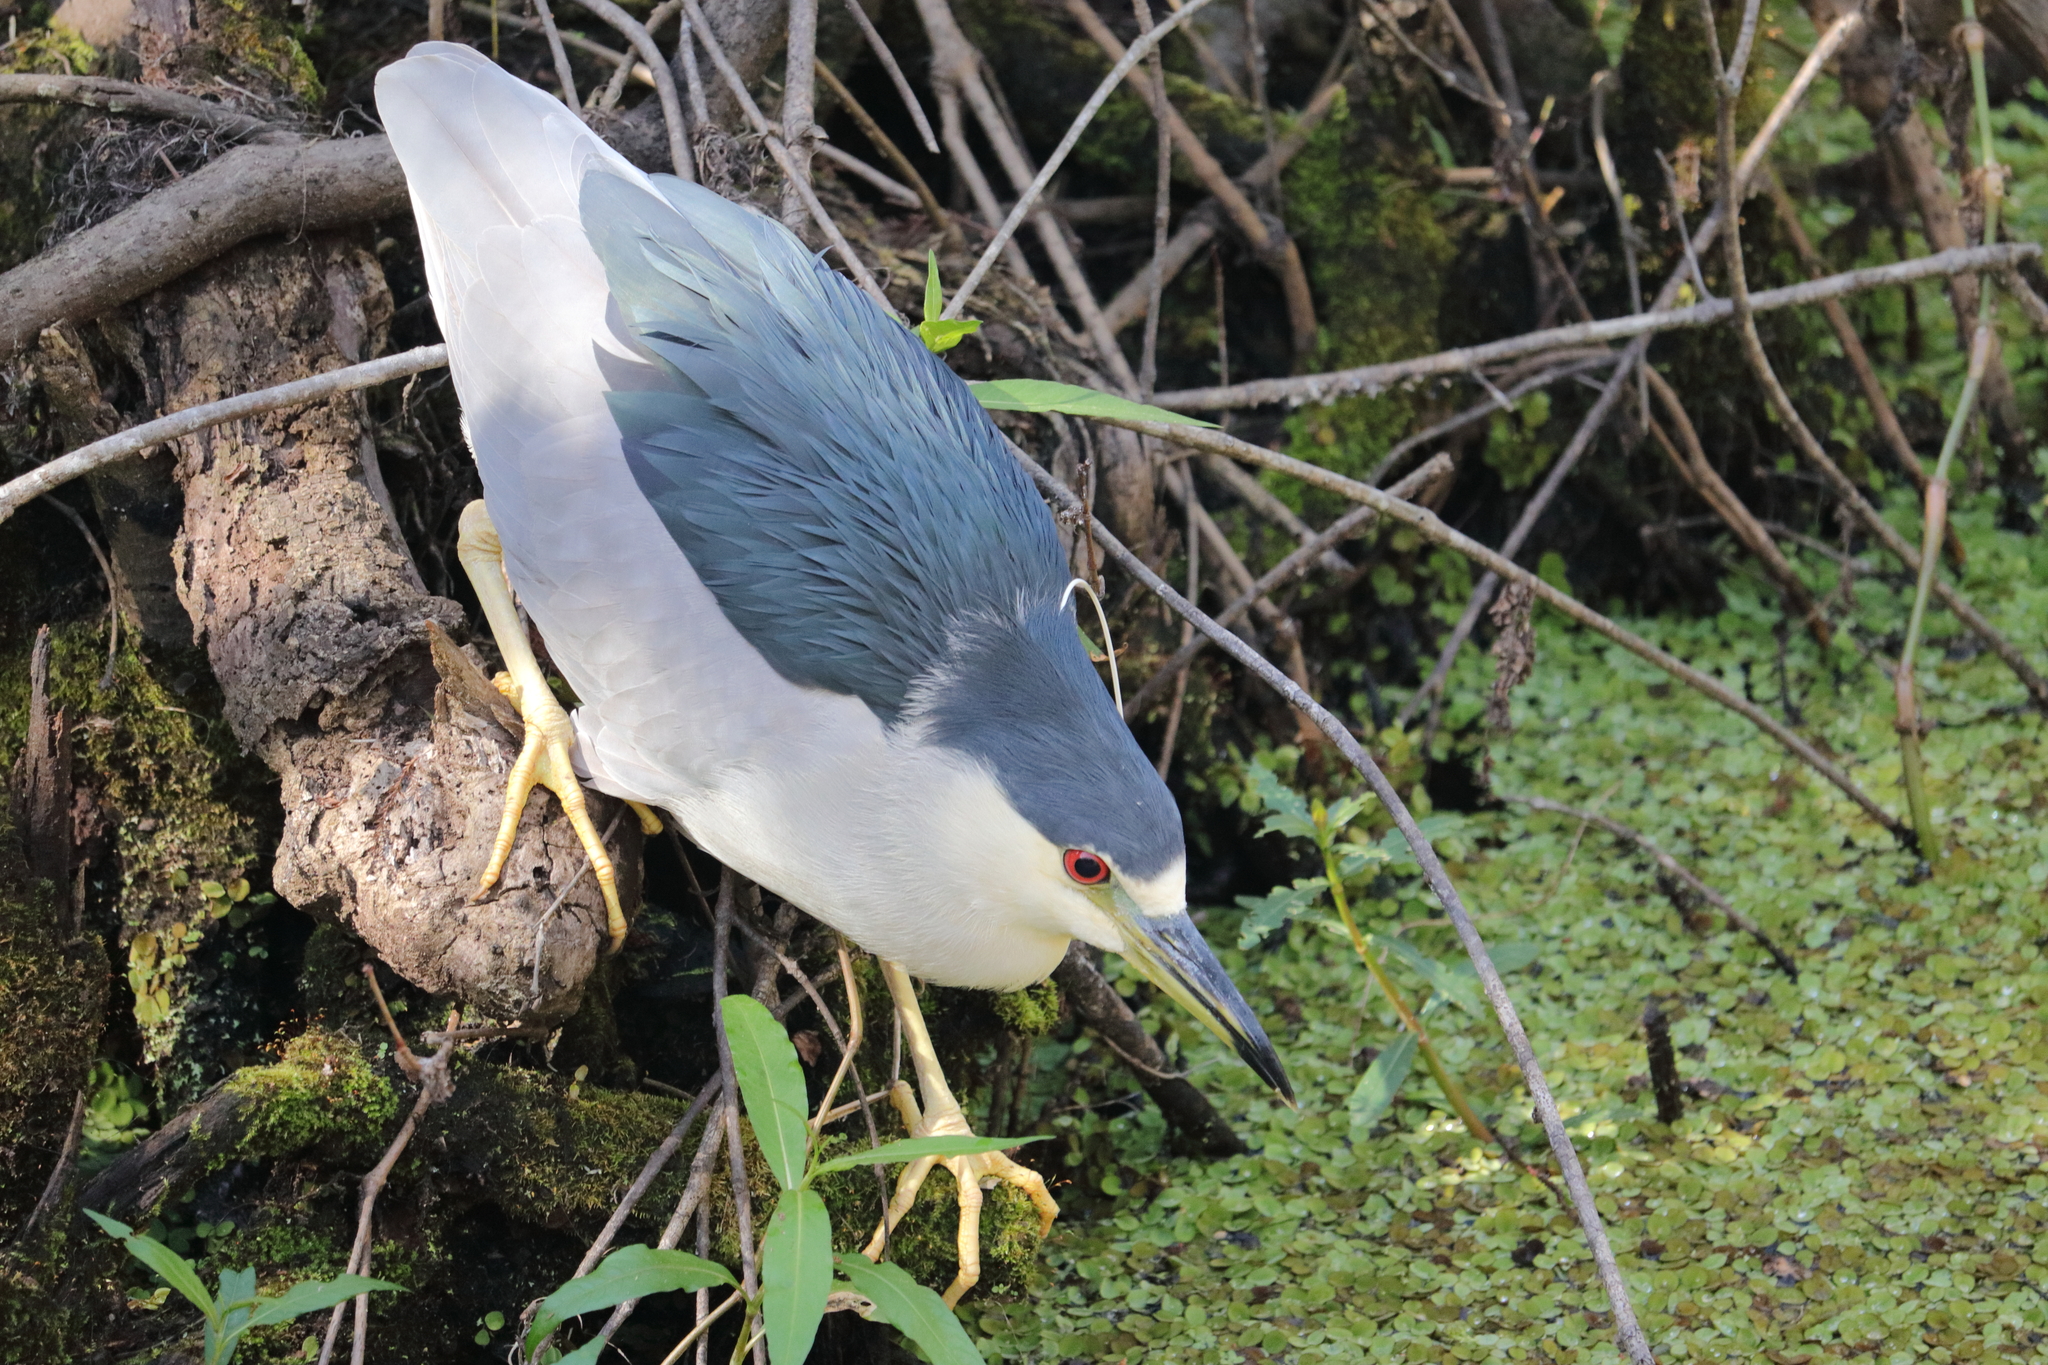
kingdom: Animalia
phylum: Chordata
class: Aves
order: Pelecaniformes
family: Ardeidae
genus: Nycticorax
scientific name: Nycticorax nycticorax
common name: Black-crowned night heron
